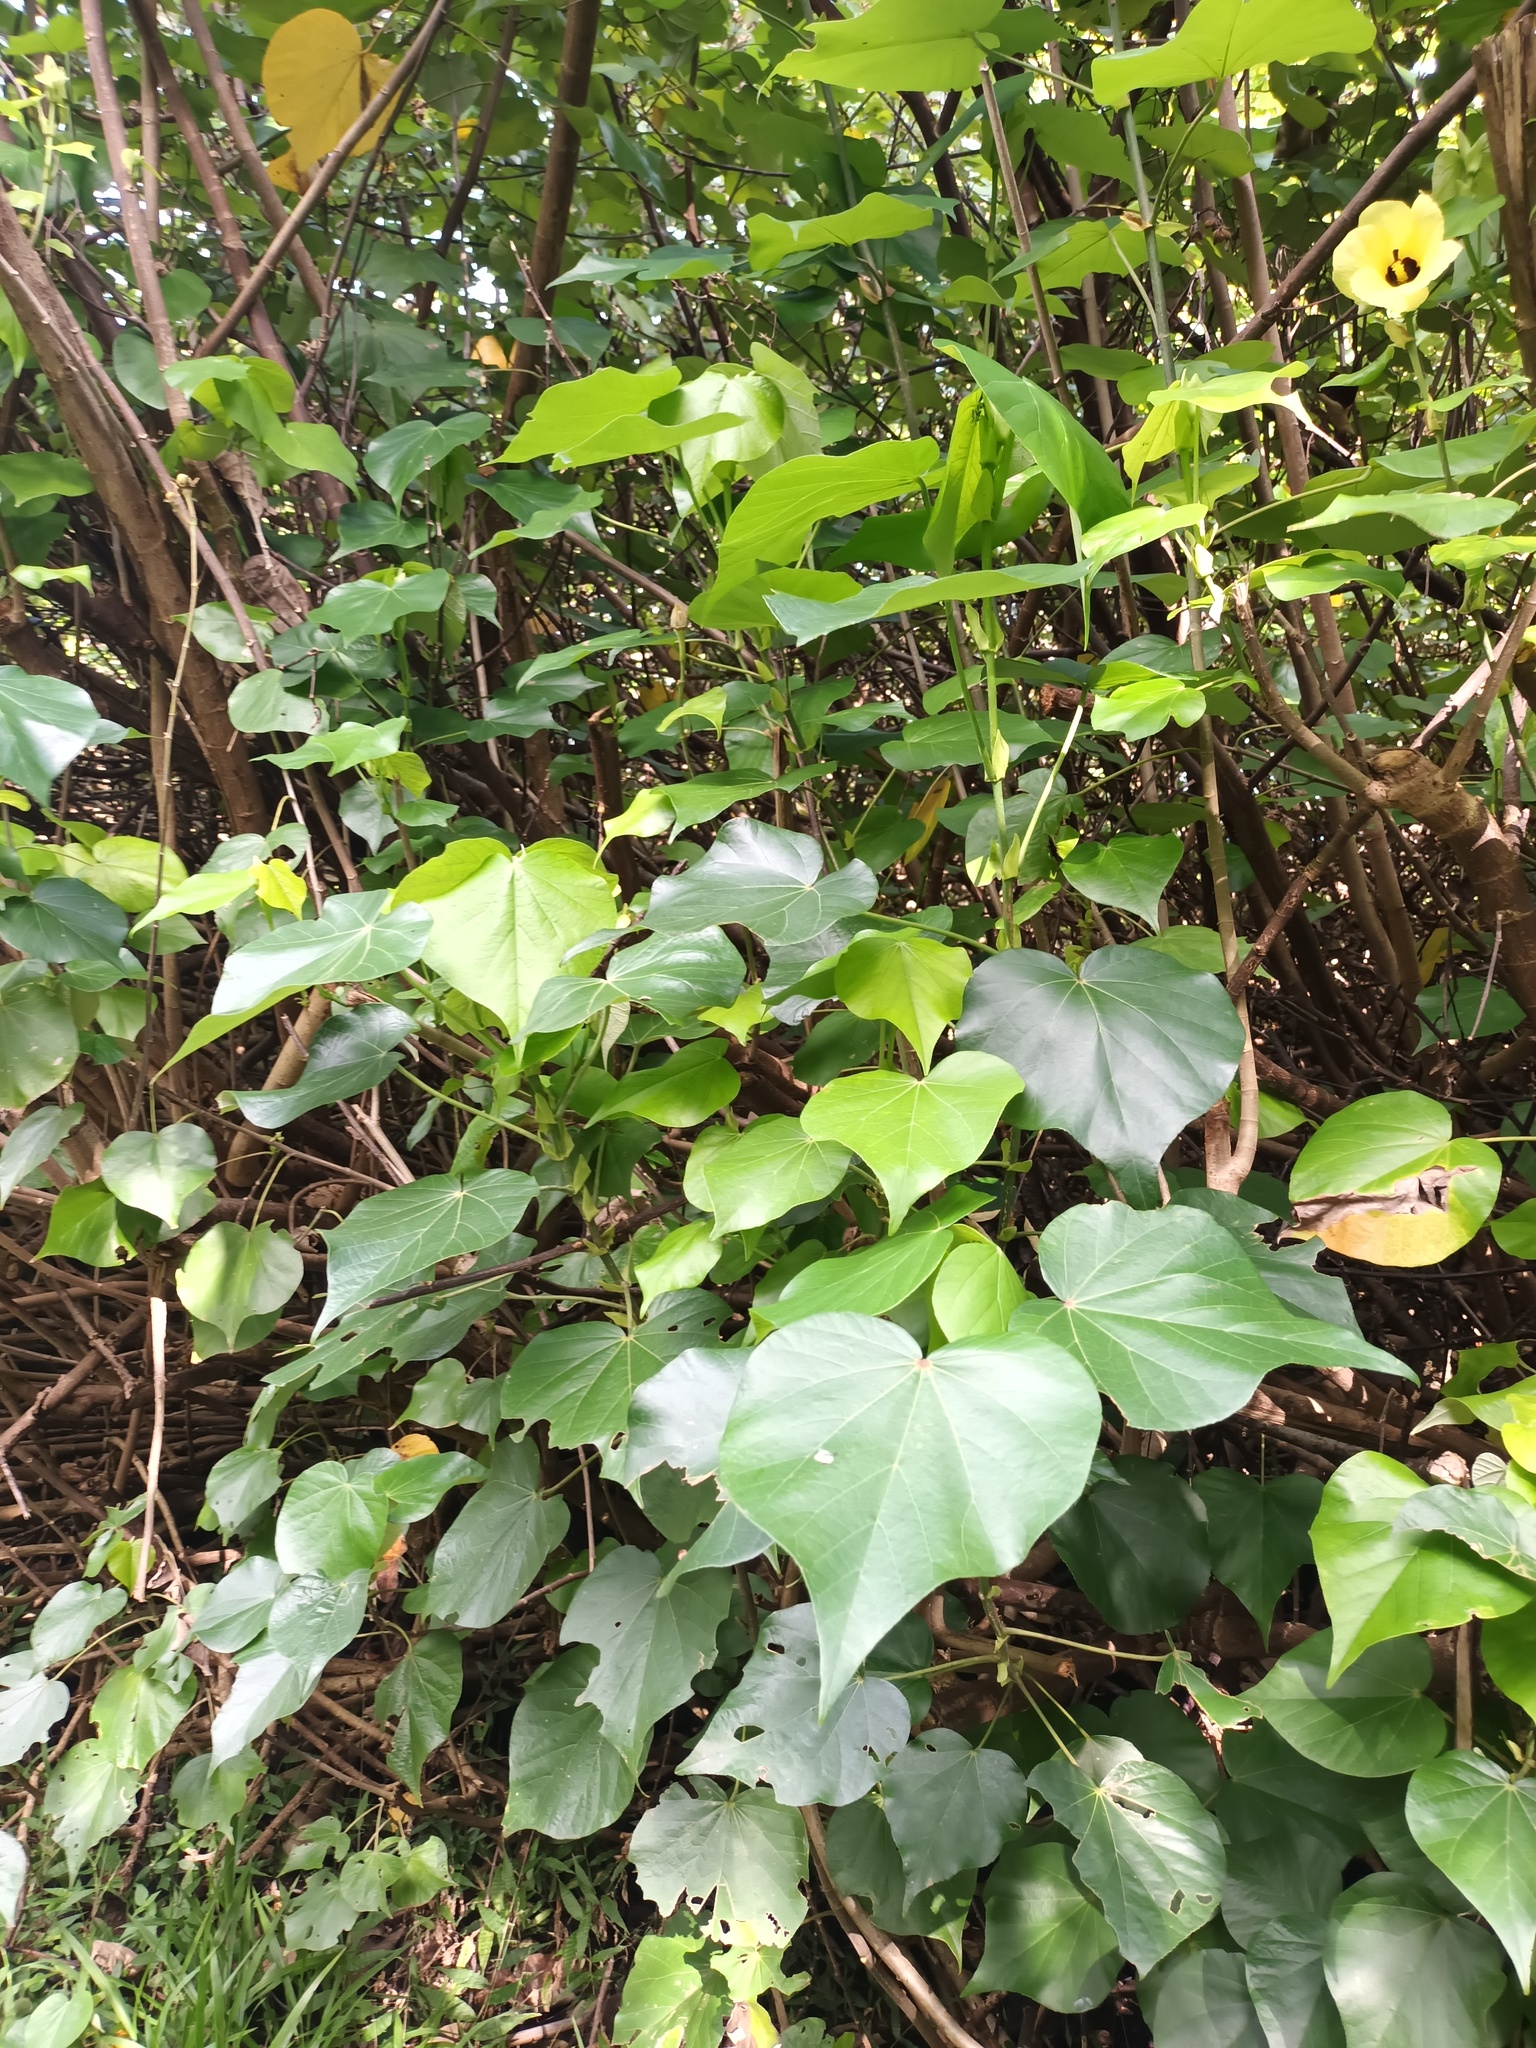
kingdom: Plantae
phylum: Tracheophyta
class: Magnoliopsida
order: Malvales
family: Malvaceae
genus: Talipariti
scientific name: Talipariti tiliaceum
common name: Sea hibiscus
